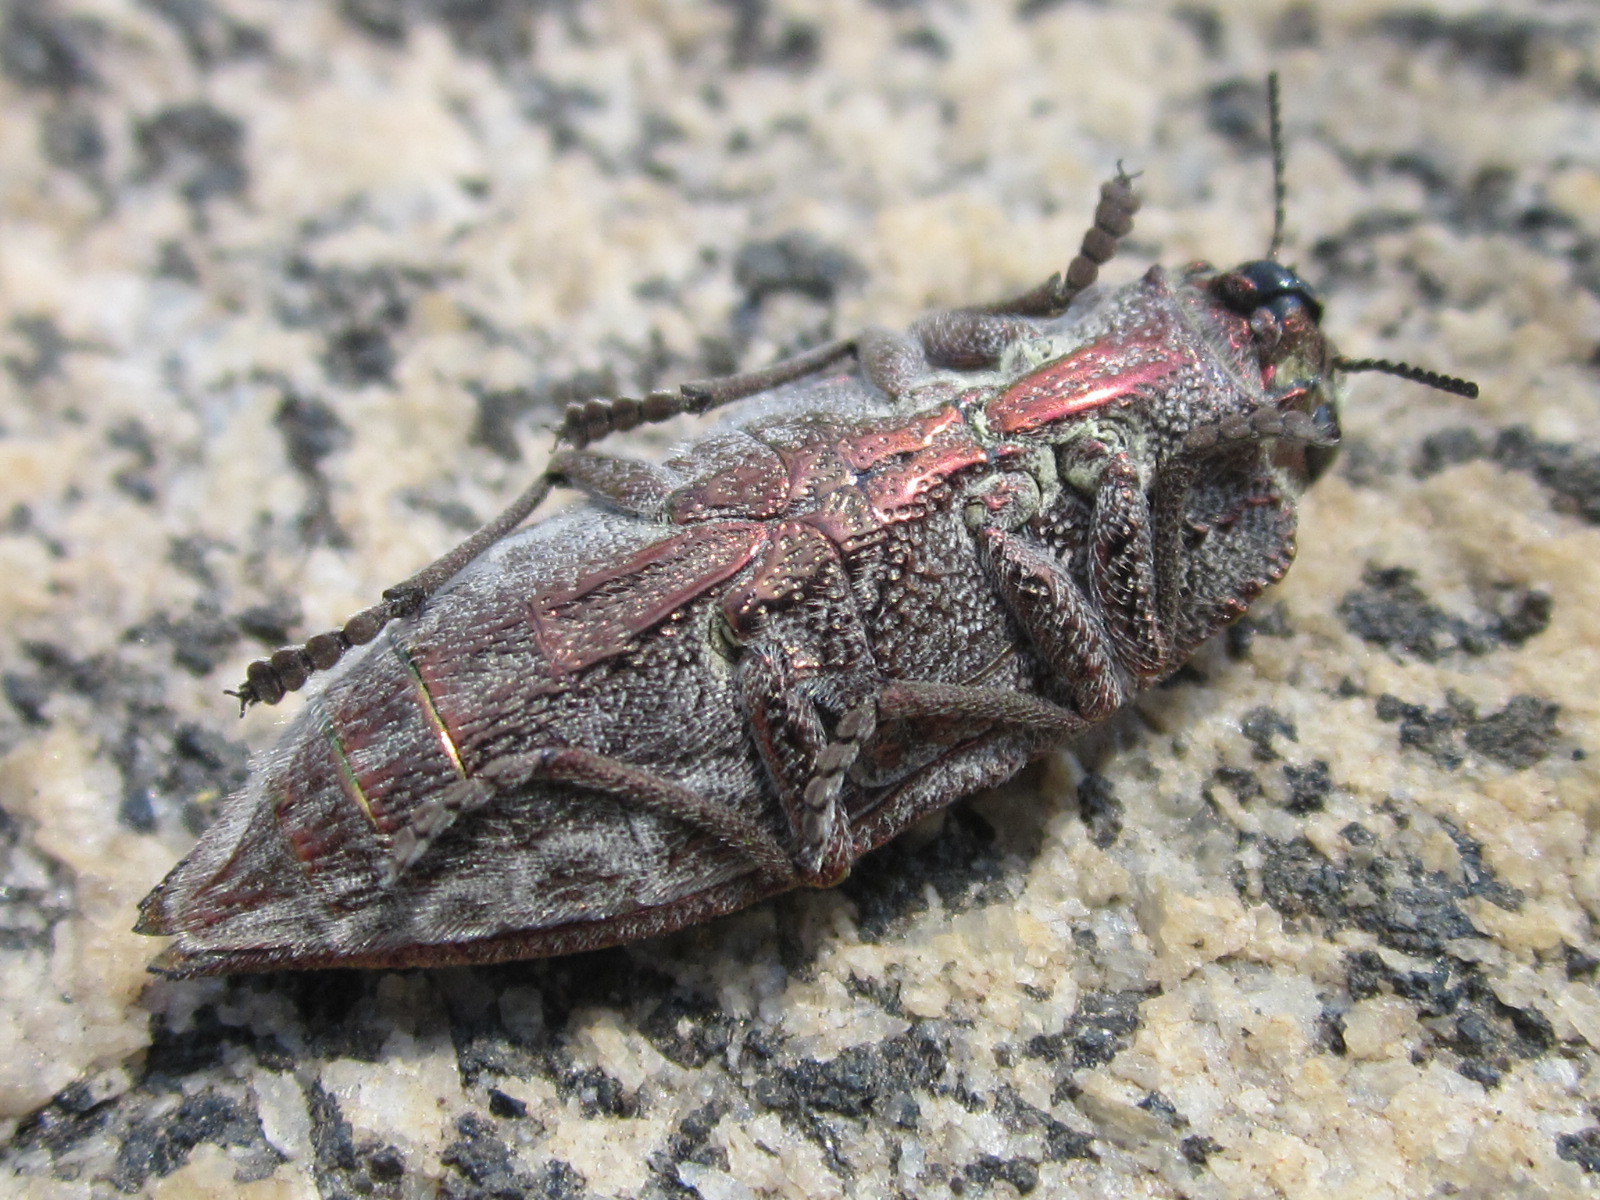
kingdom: Animalia
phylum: Arthropoda
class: Insecta
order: Coleoptera
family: Buprestidae
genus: Ectinogonia
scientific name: Ectinogonia buquetii
